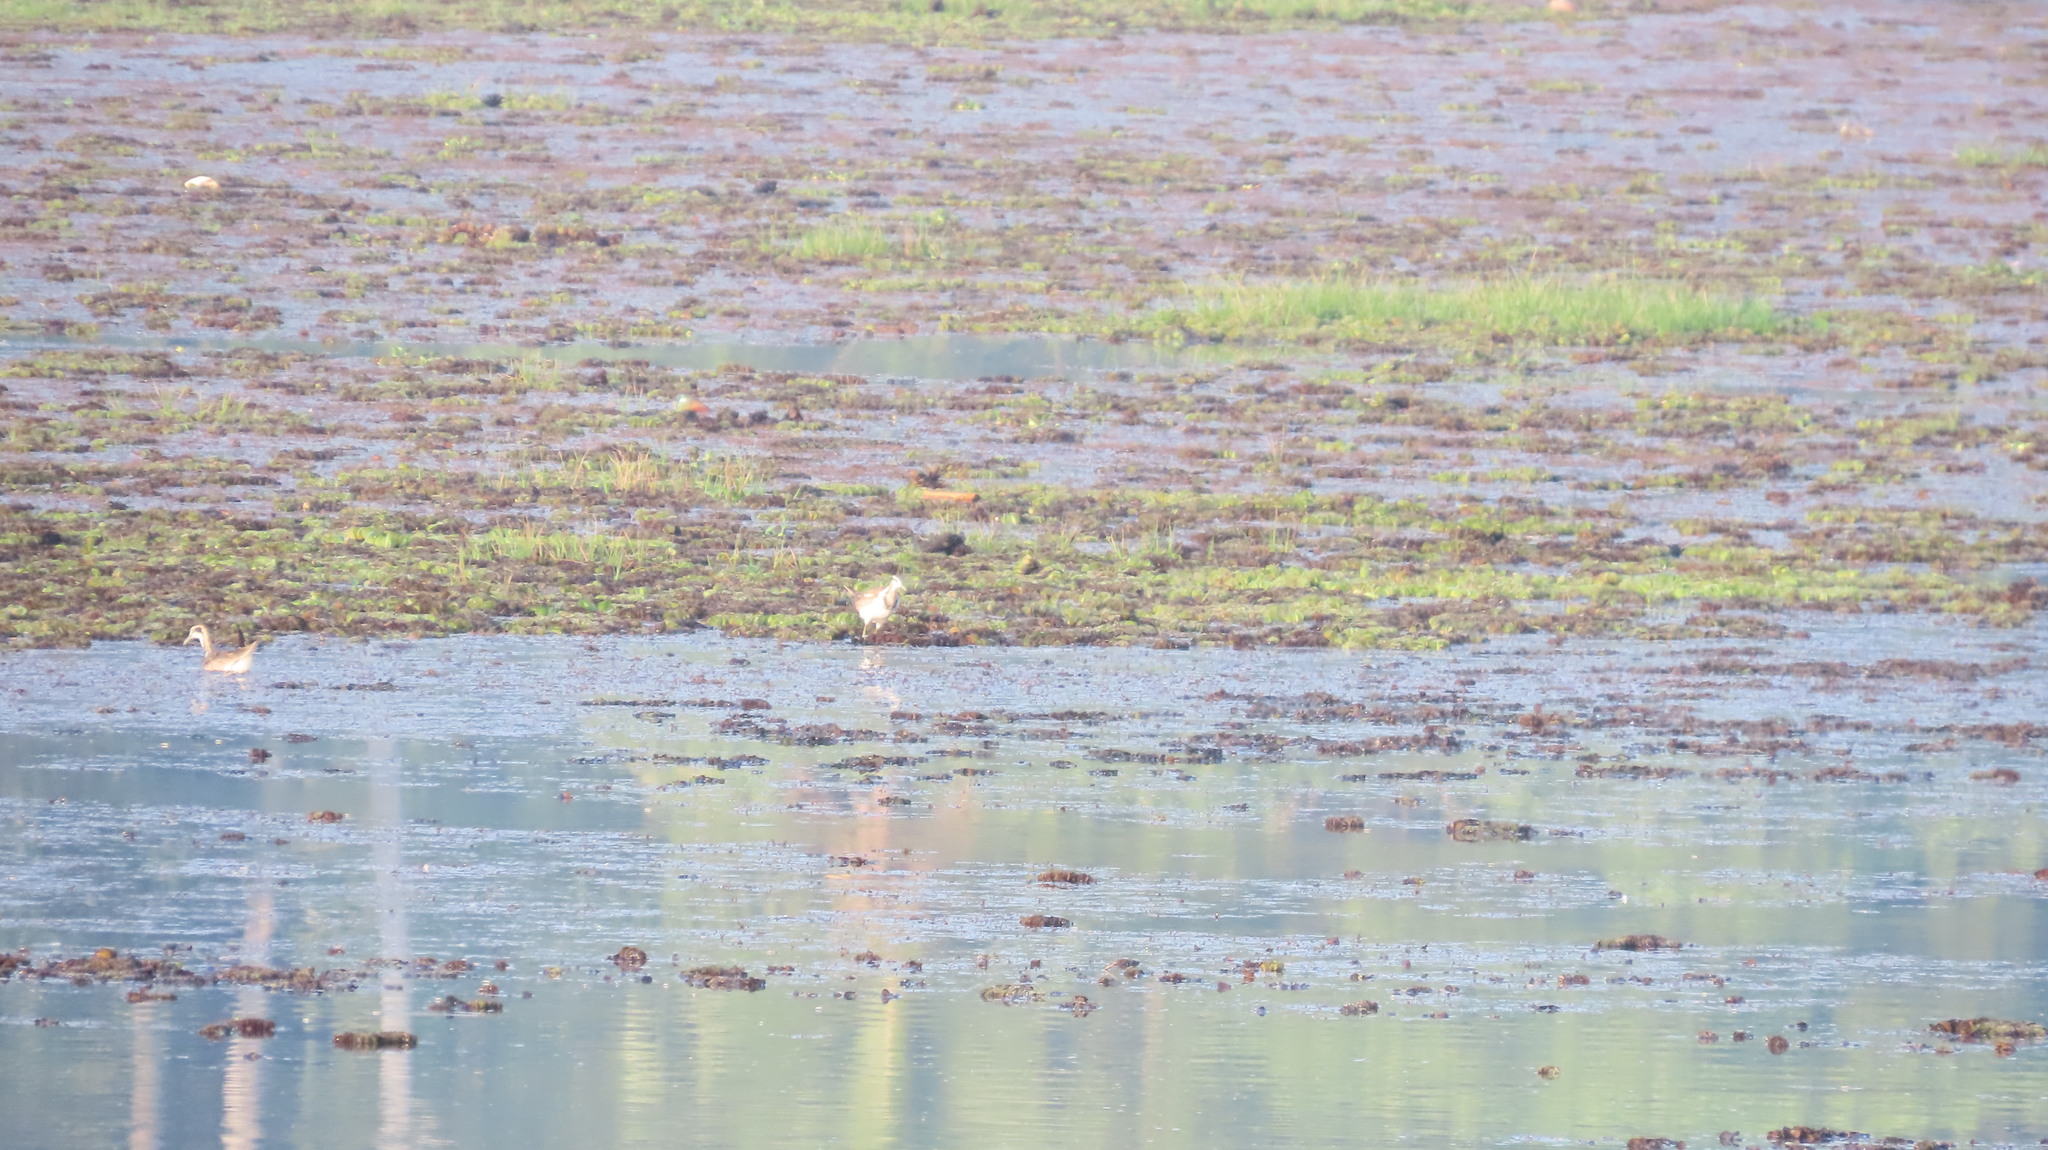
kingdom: Animalia
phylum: Chordata
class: Aves
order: Charadriiformes
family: Jacanidae
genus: Hydrophasianus
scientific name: Hydrophasianus chirurgus
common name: Pheasant-tailed jacana
